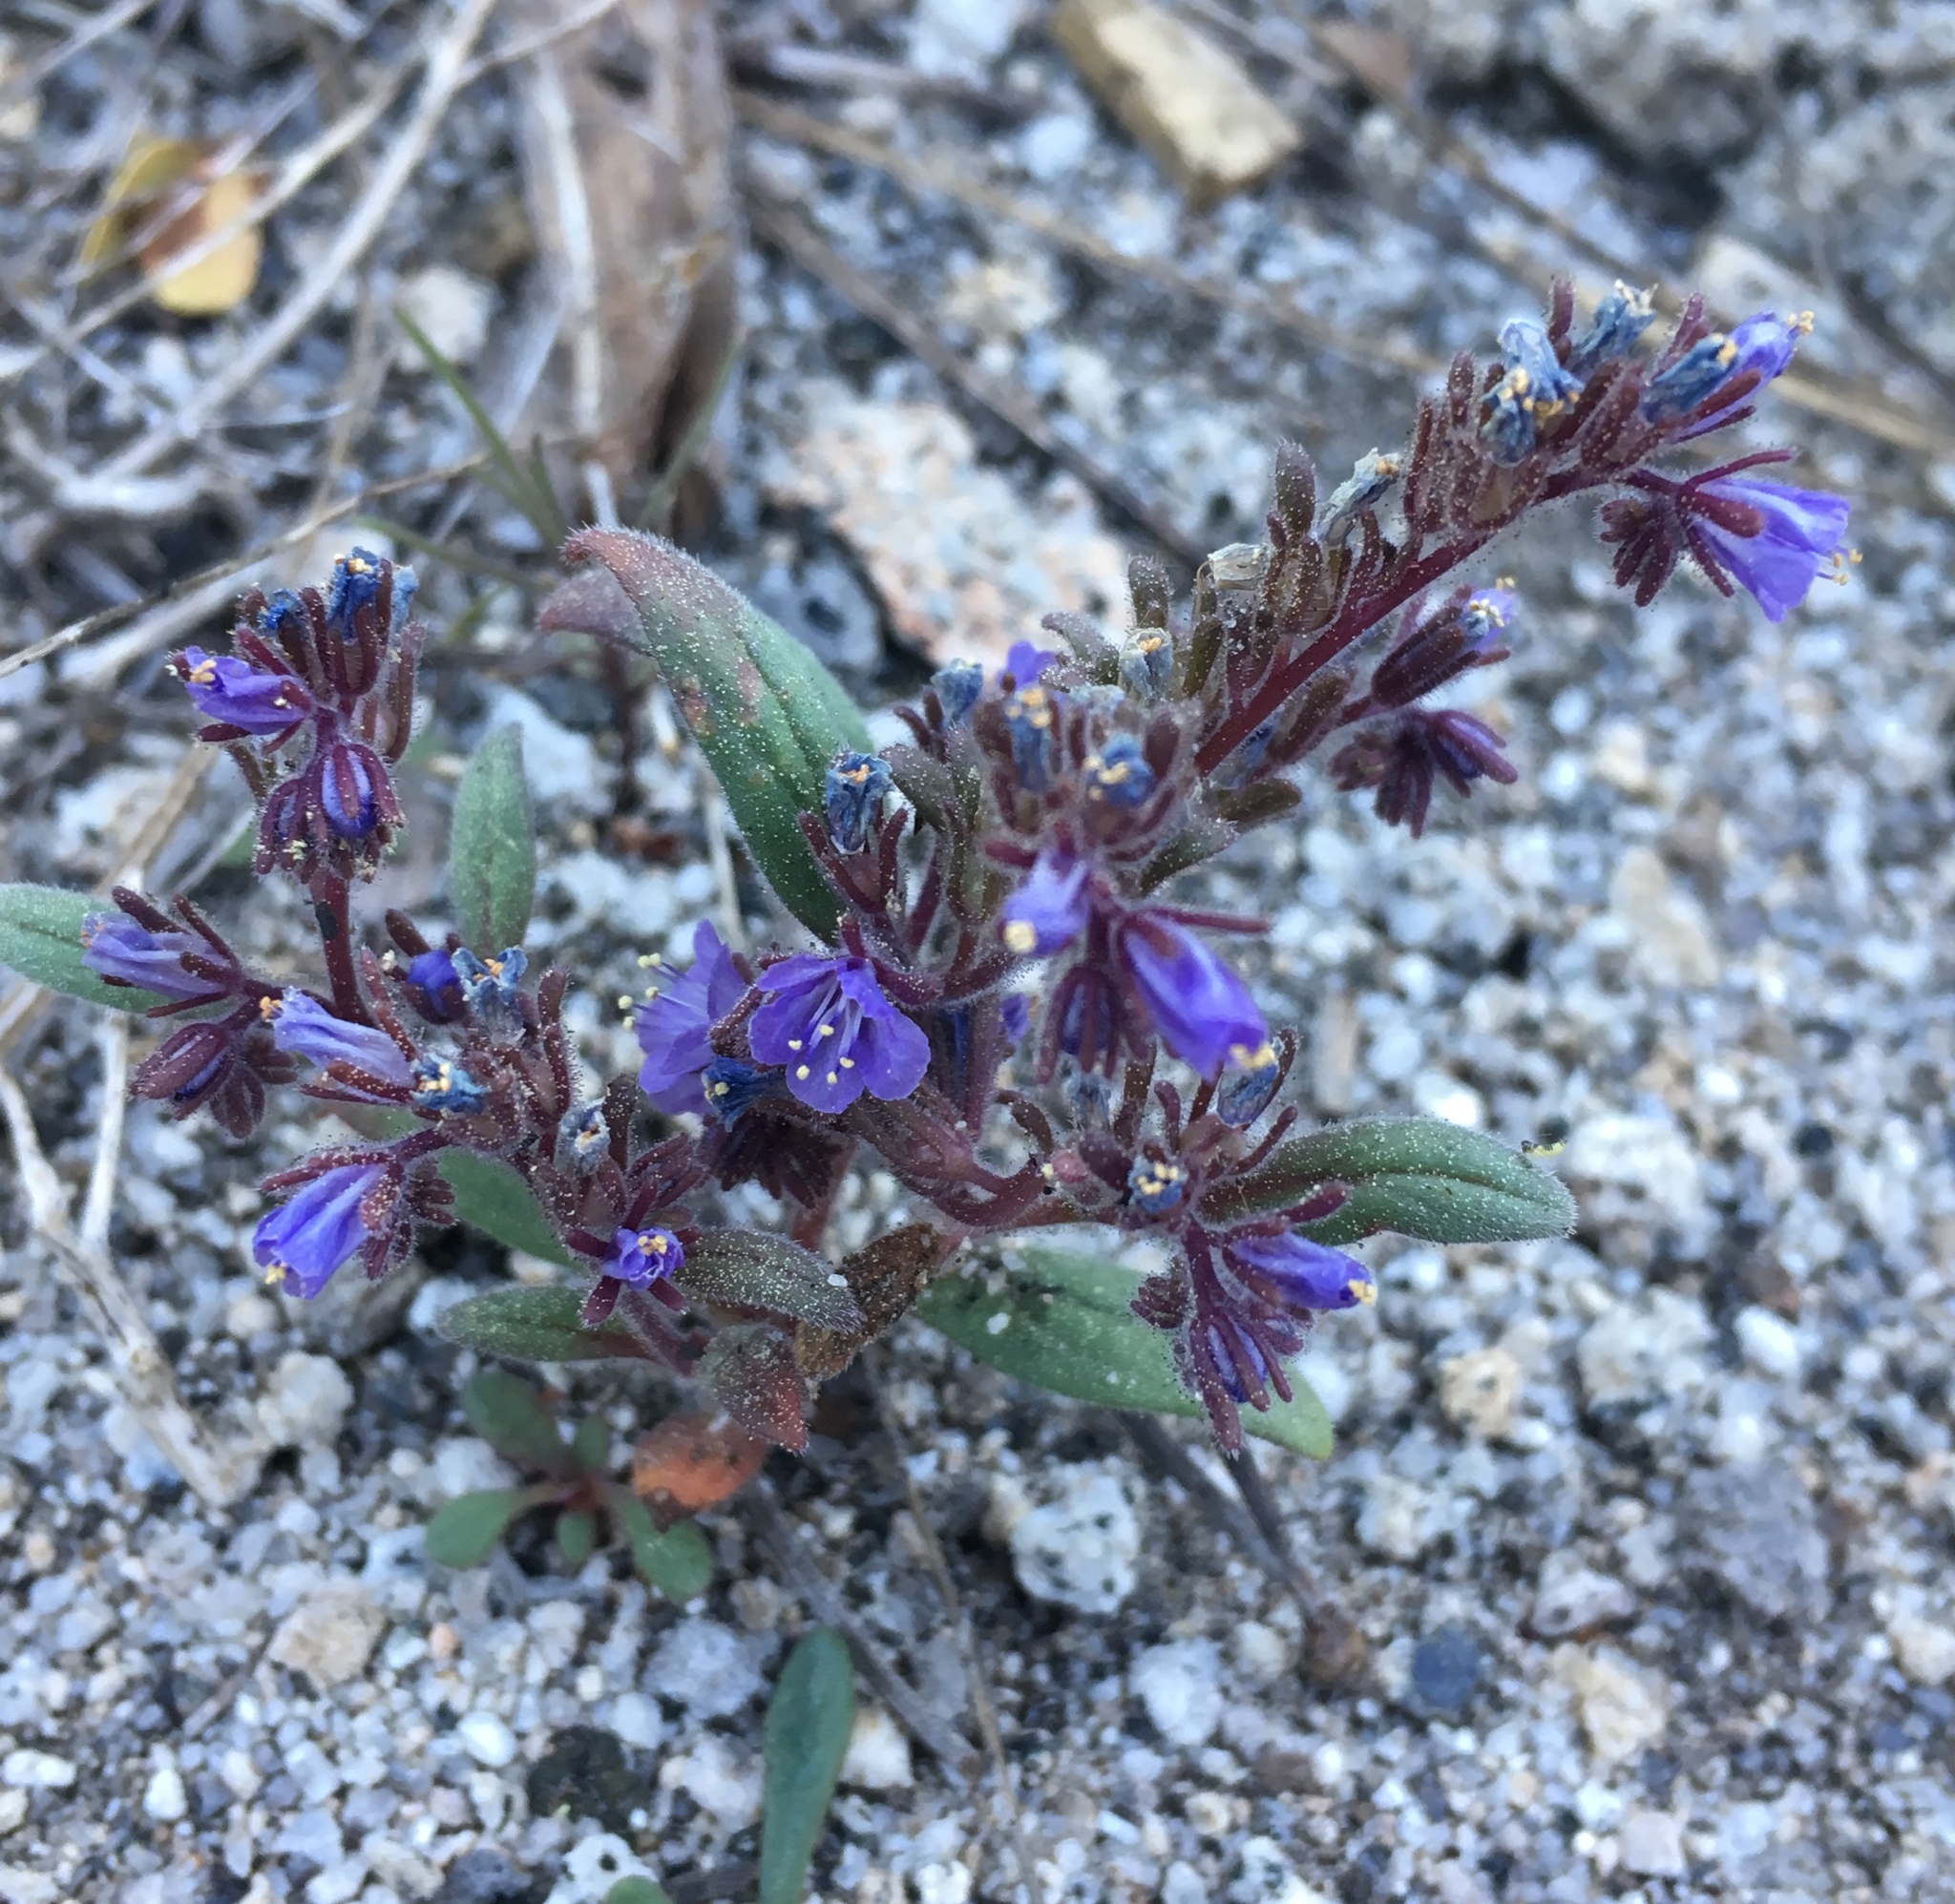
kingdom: Plantae
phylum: Tracheophyta
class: Magnoliopsida
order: Boraginales
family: Hydrophyllaceae
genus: Phacelia
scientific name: Phacelia quickii
